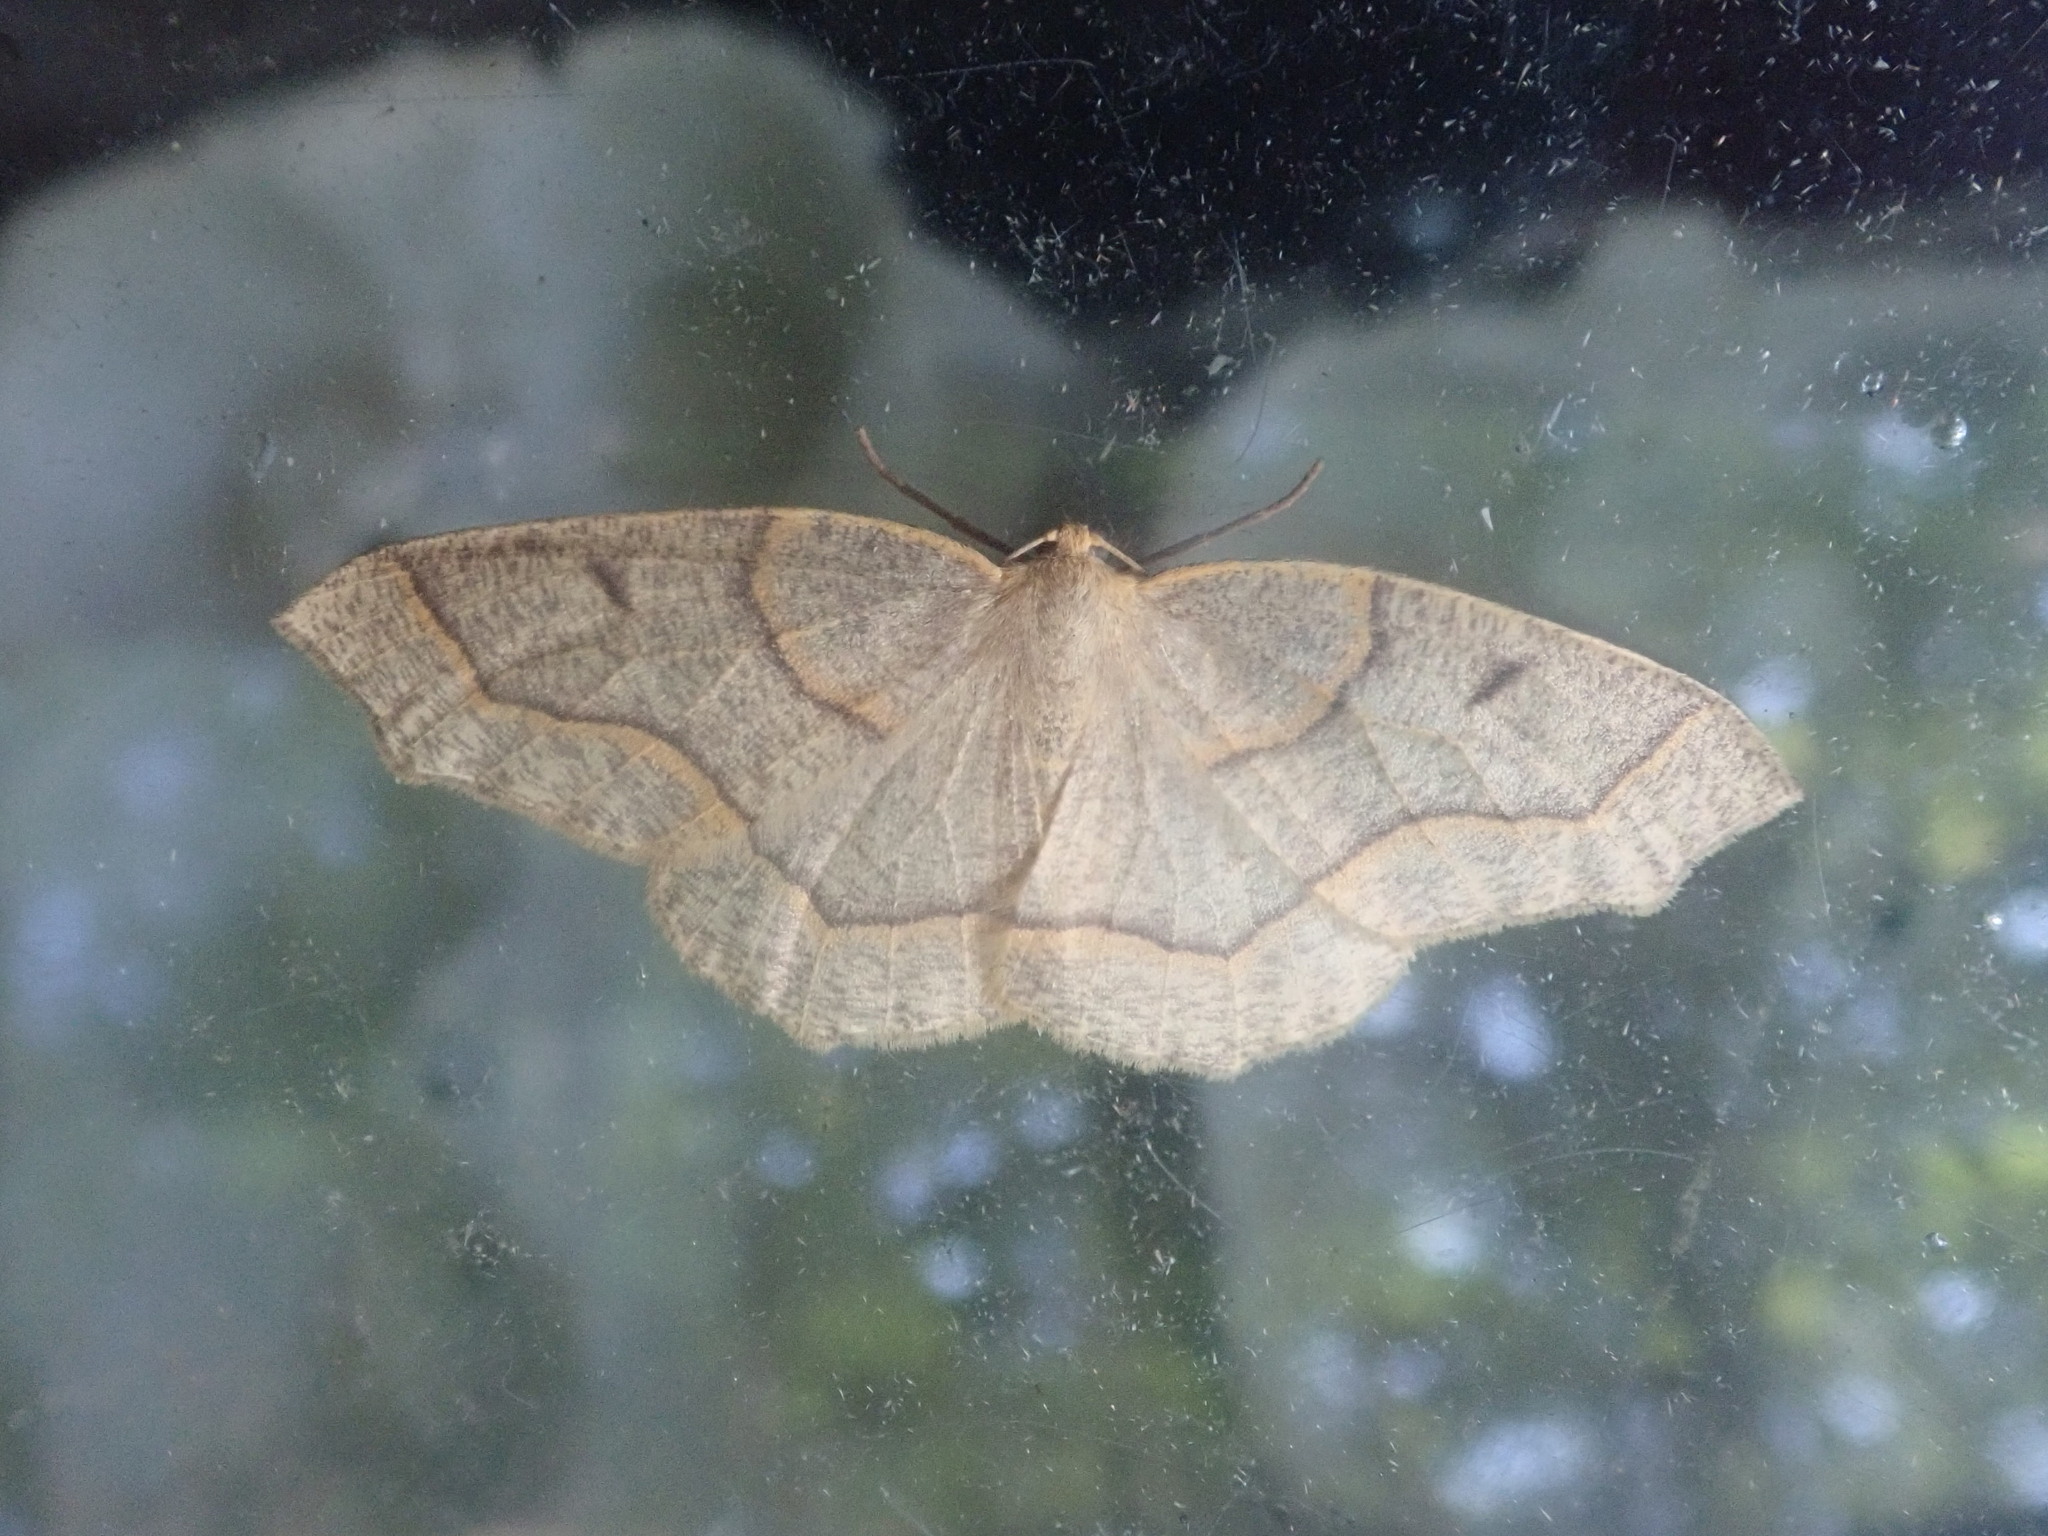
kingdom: Animalia
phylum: Arthropoda
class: Insecta
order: Lepidoptera
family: Geometridae
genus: Lambdina
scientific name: Lambdina fiscellaria
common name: Hemlock looper
